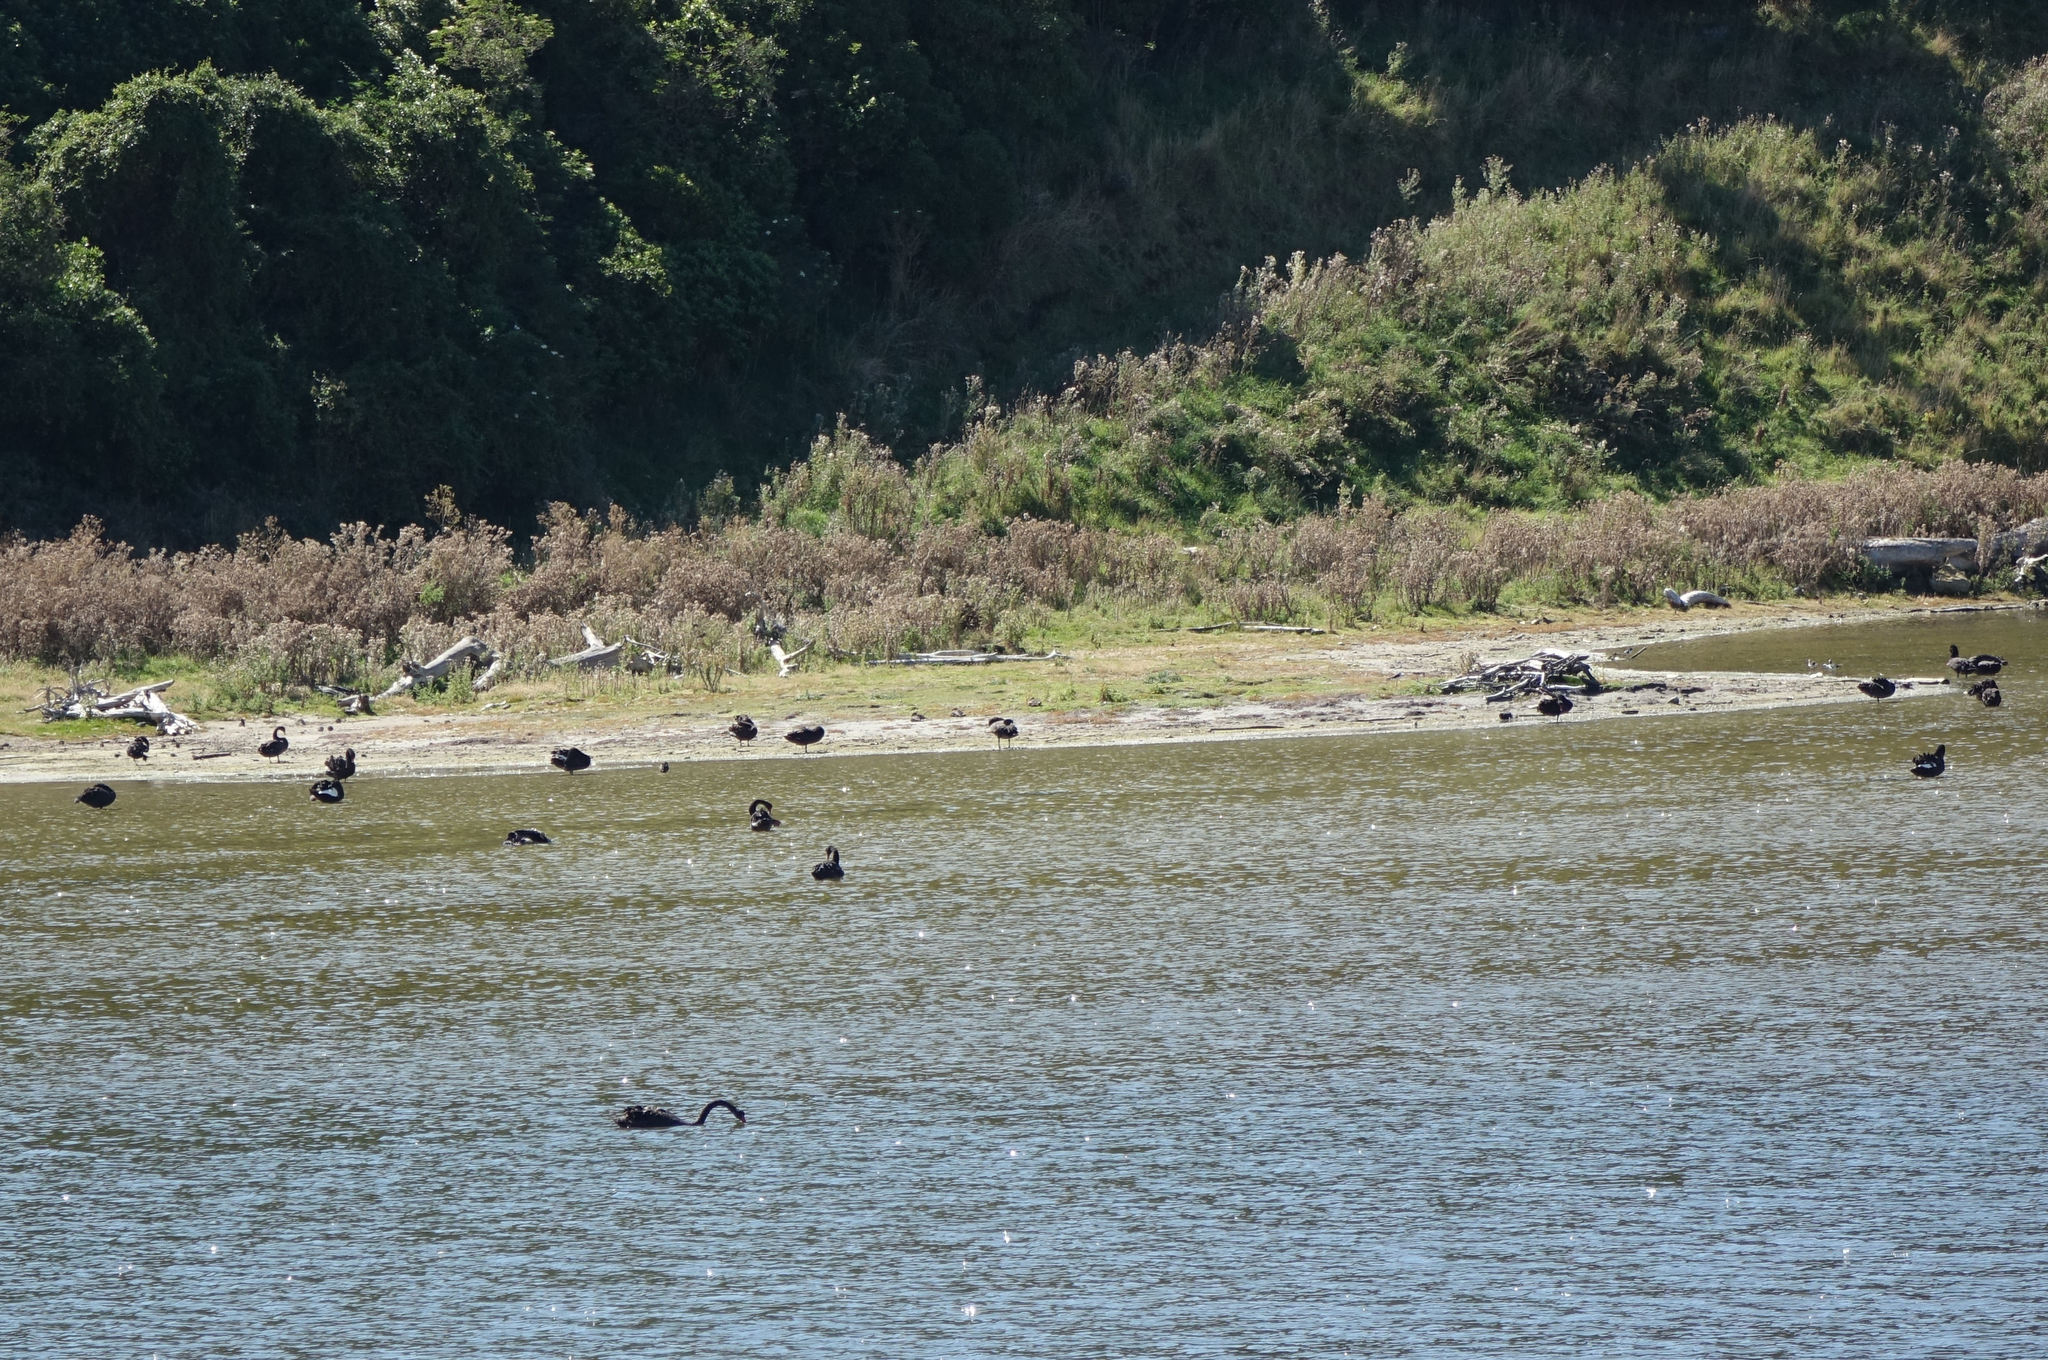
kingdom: Animalia
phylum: Chordata
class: Aves
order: Anseriformes
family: Anatidae
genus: Cygnus
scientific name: Cygnus atratus
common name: Black swan
